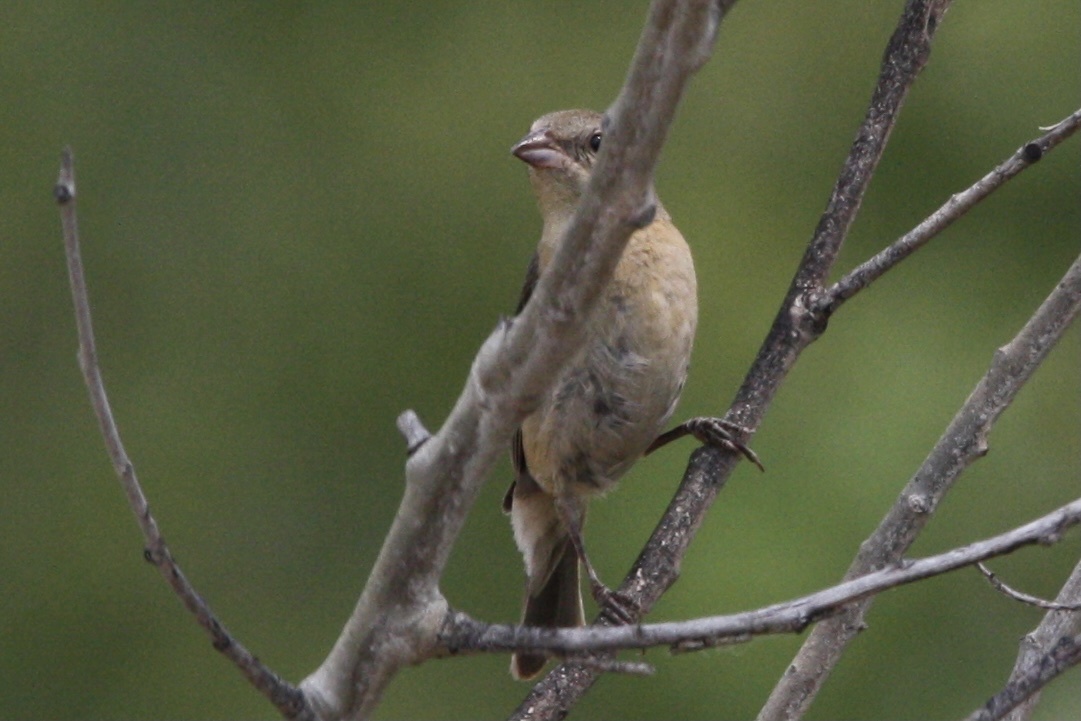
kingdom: Animalia
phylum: Chordata
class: Aves
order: Passeriformes
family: Cardinalidae
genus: Passerina
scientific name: Passerina amoena
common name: Lazuli bunting
